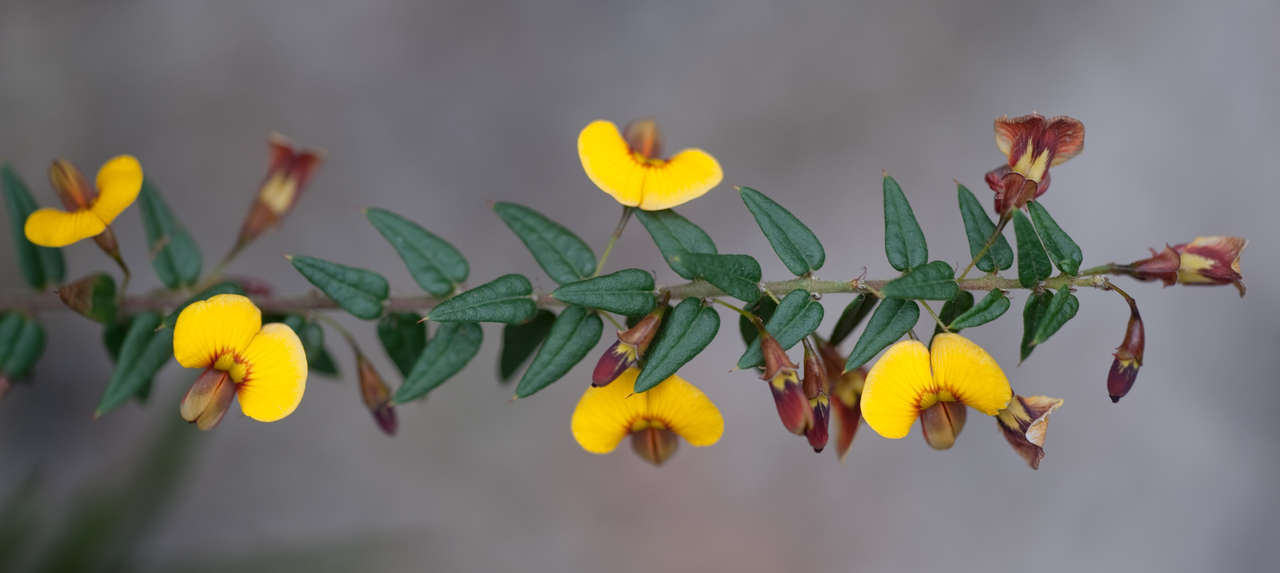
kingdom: Plantae
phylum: Tracheophyta
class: Magnoliopsida
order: Fabales
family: Fabaceae
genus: Bossiaea
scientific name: Bossiaea cinerea
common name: Showy bossiaea
